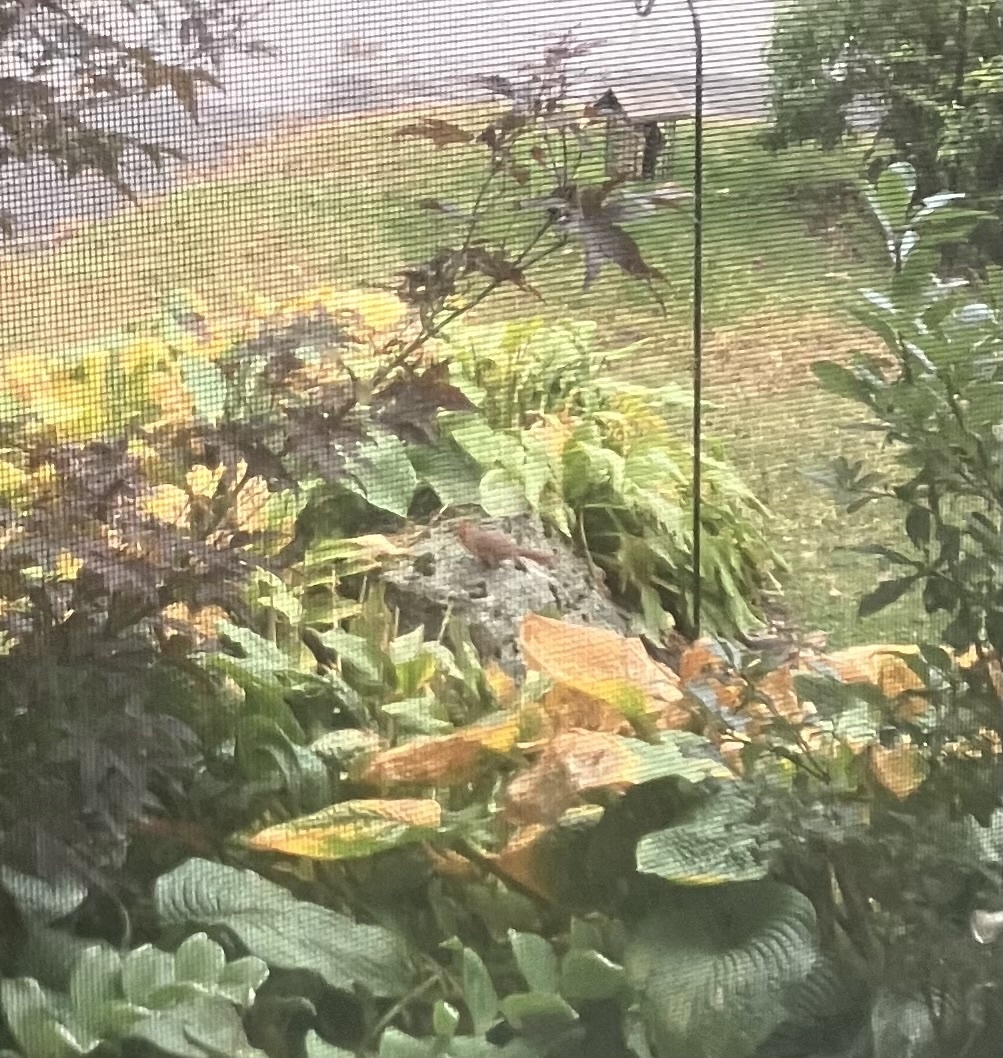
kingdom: Animalia
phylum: Chordata
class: Aves
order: Passeriformes
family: Cardinalidae
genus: Cardinalis
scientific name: Cardinalis cardinalis
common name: Northern cardinal
